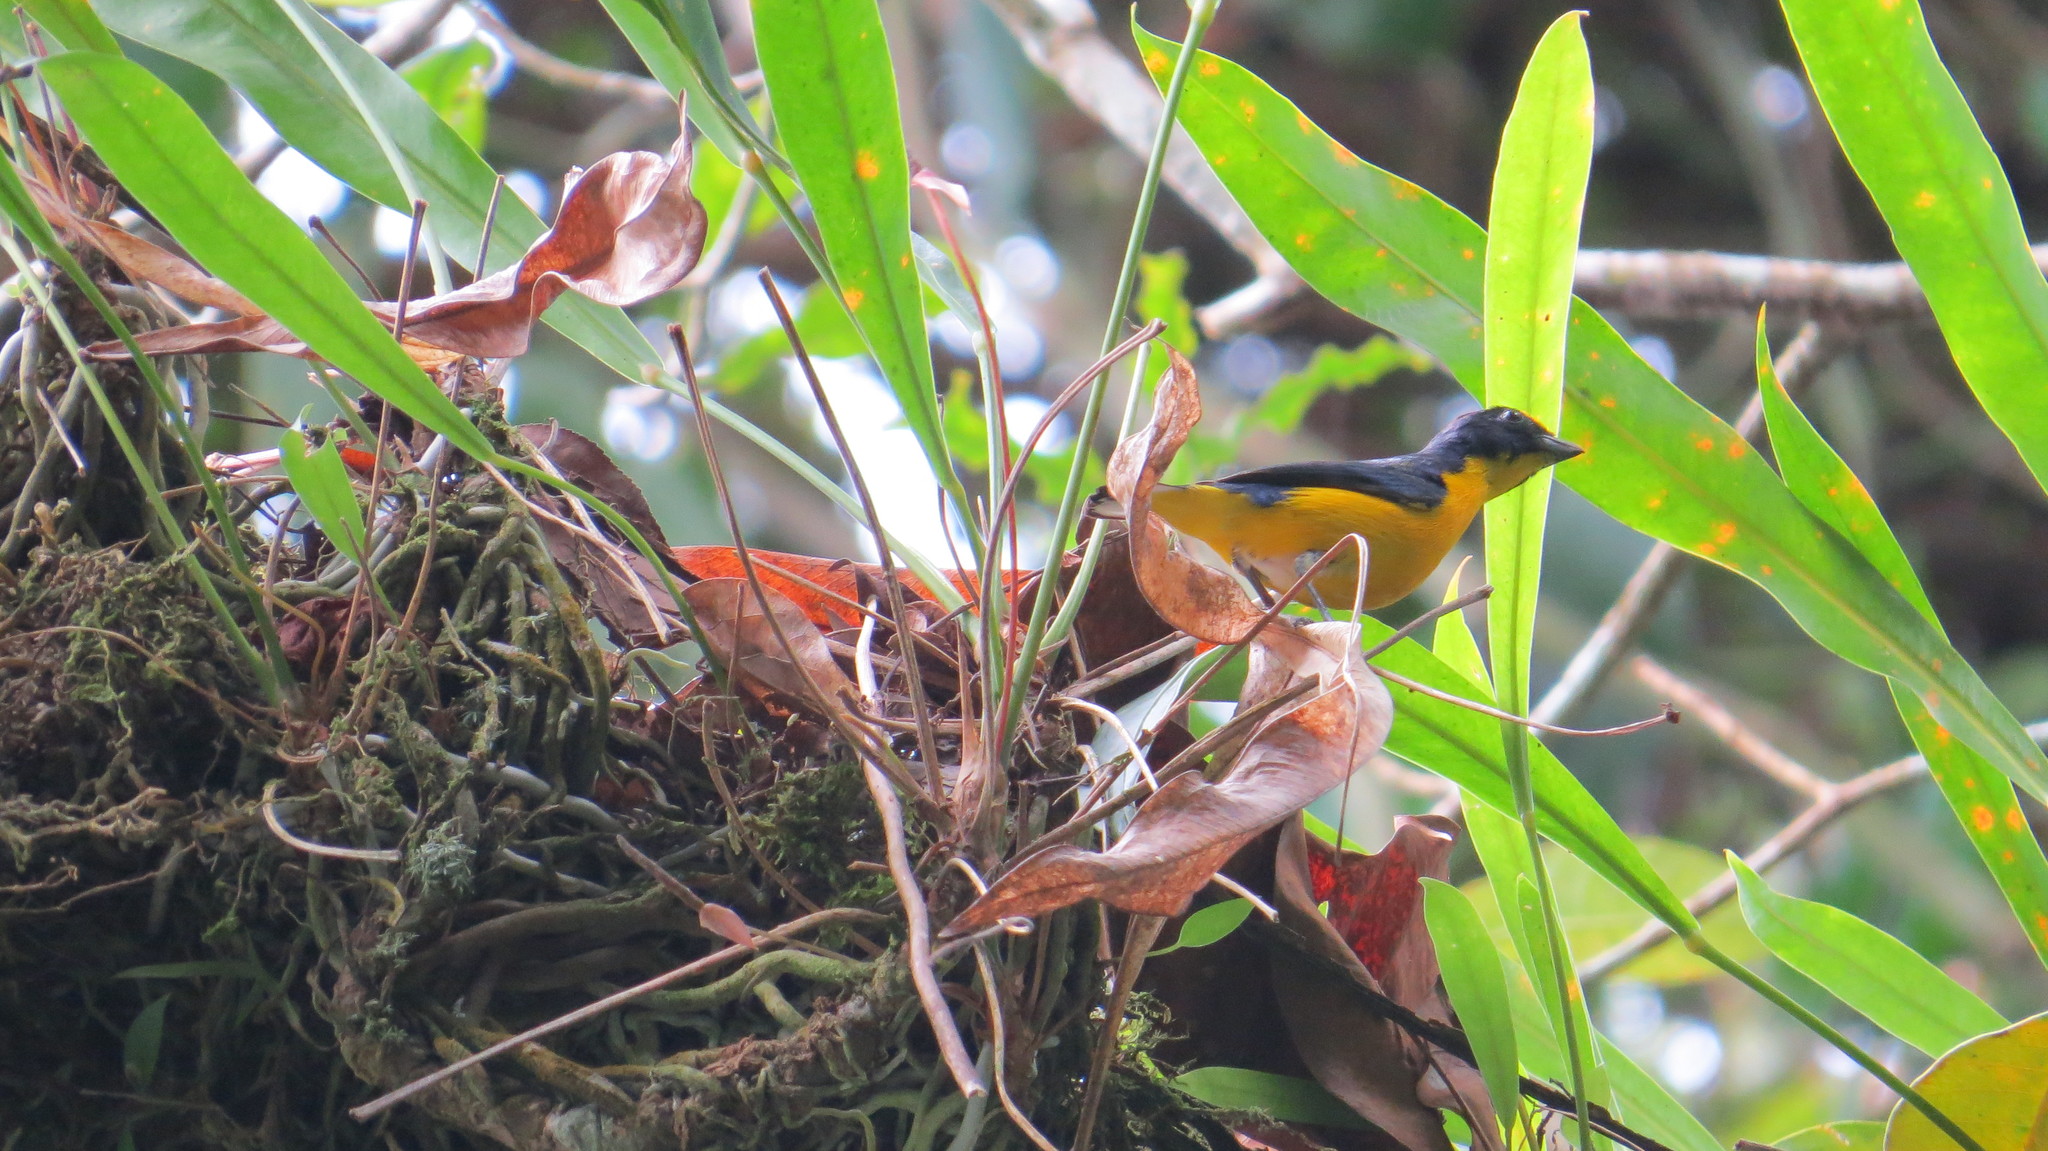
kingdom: Animalia
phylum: Chordata
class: Aves
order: Passeriformes
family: Fringillidae
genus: Euphonia
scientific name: Euphonia hirundinacea
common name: Yellow-throated euphonia
